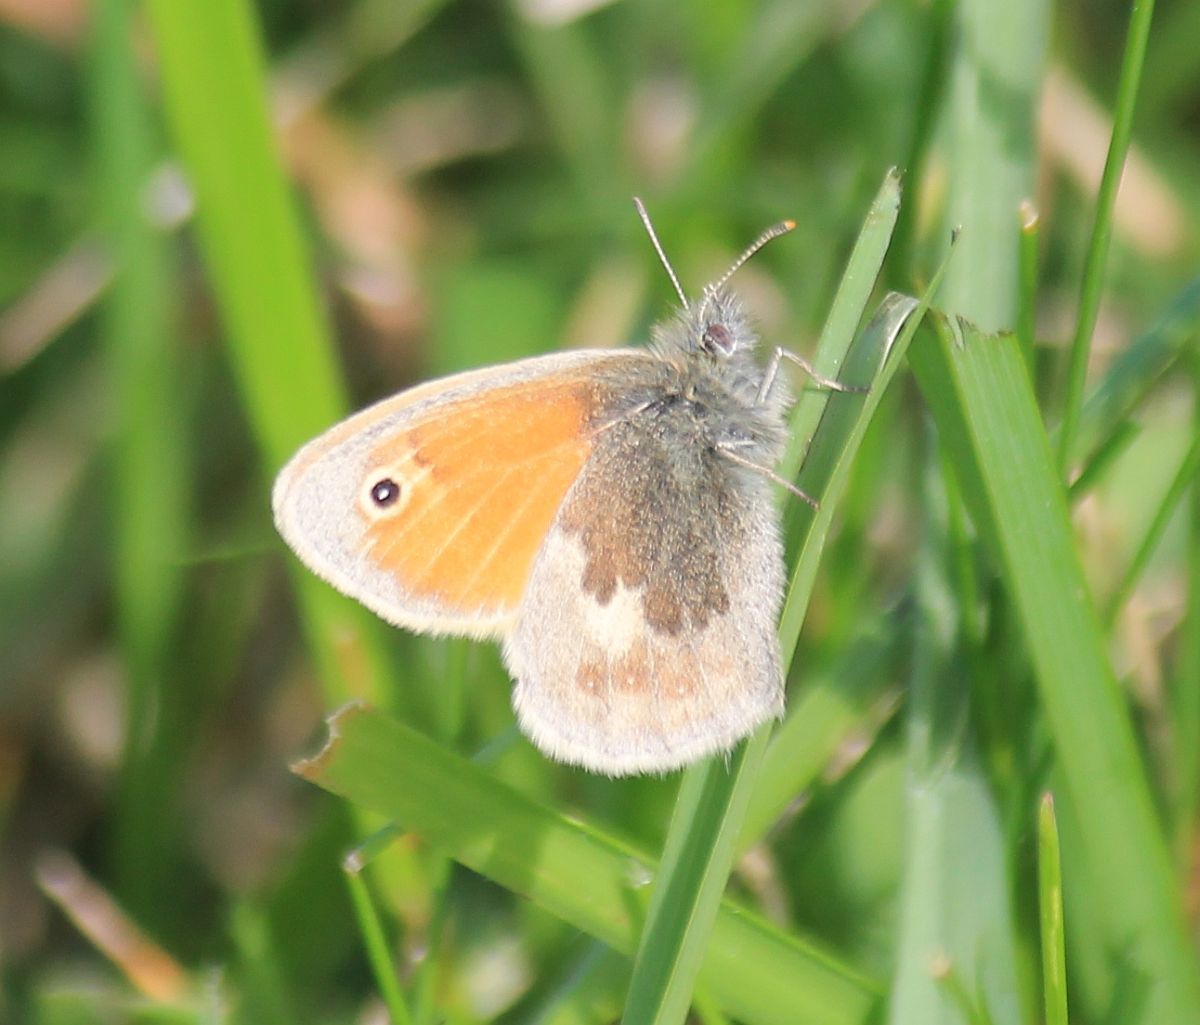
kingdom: Animalia
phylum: Arthropoda
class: Insecta
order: Lepidoptera
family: Nymphalidae
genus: Coenonympha
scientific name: Coenonympha pamphilus
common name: Small heath
